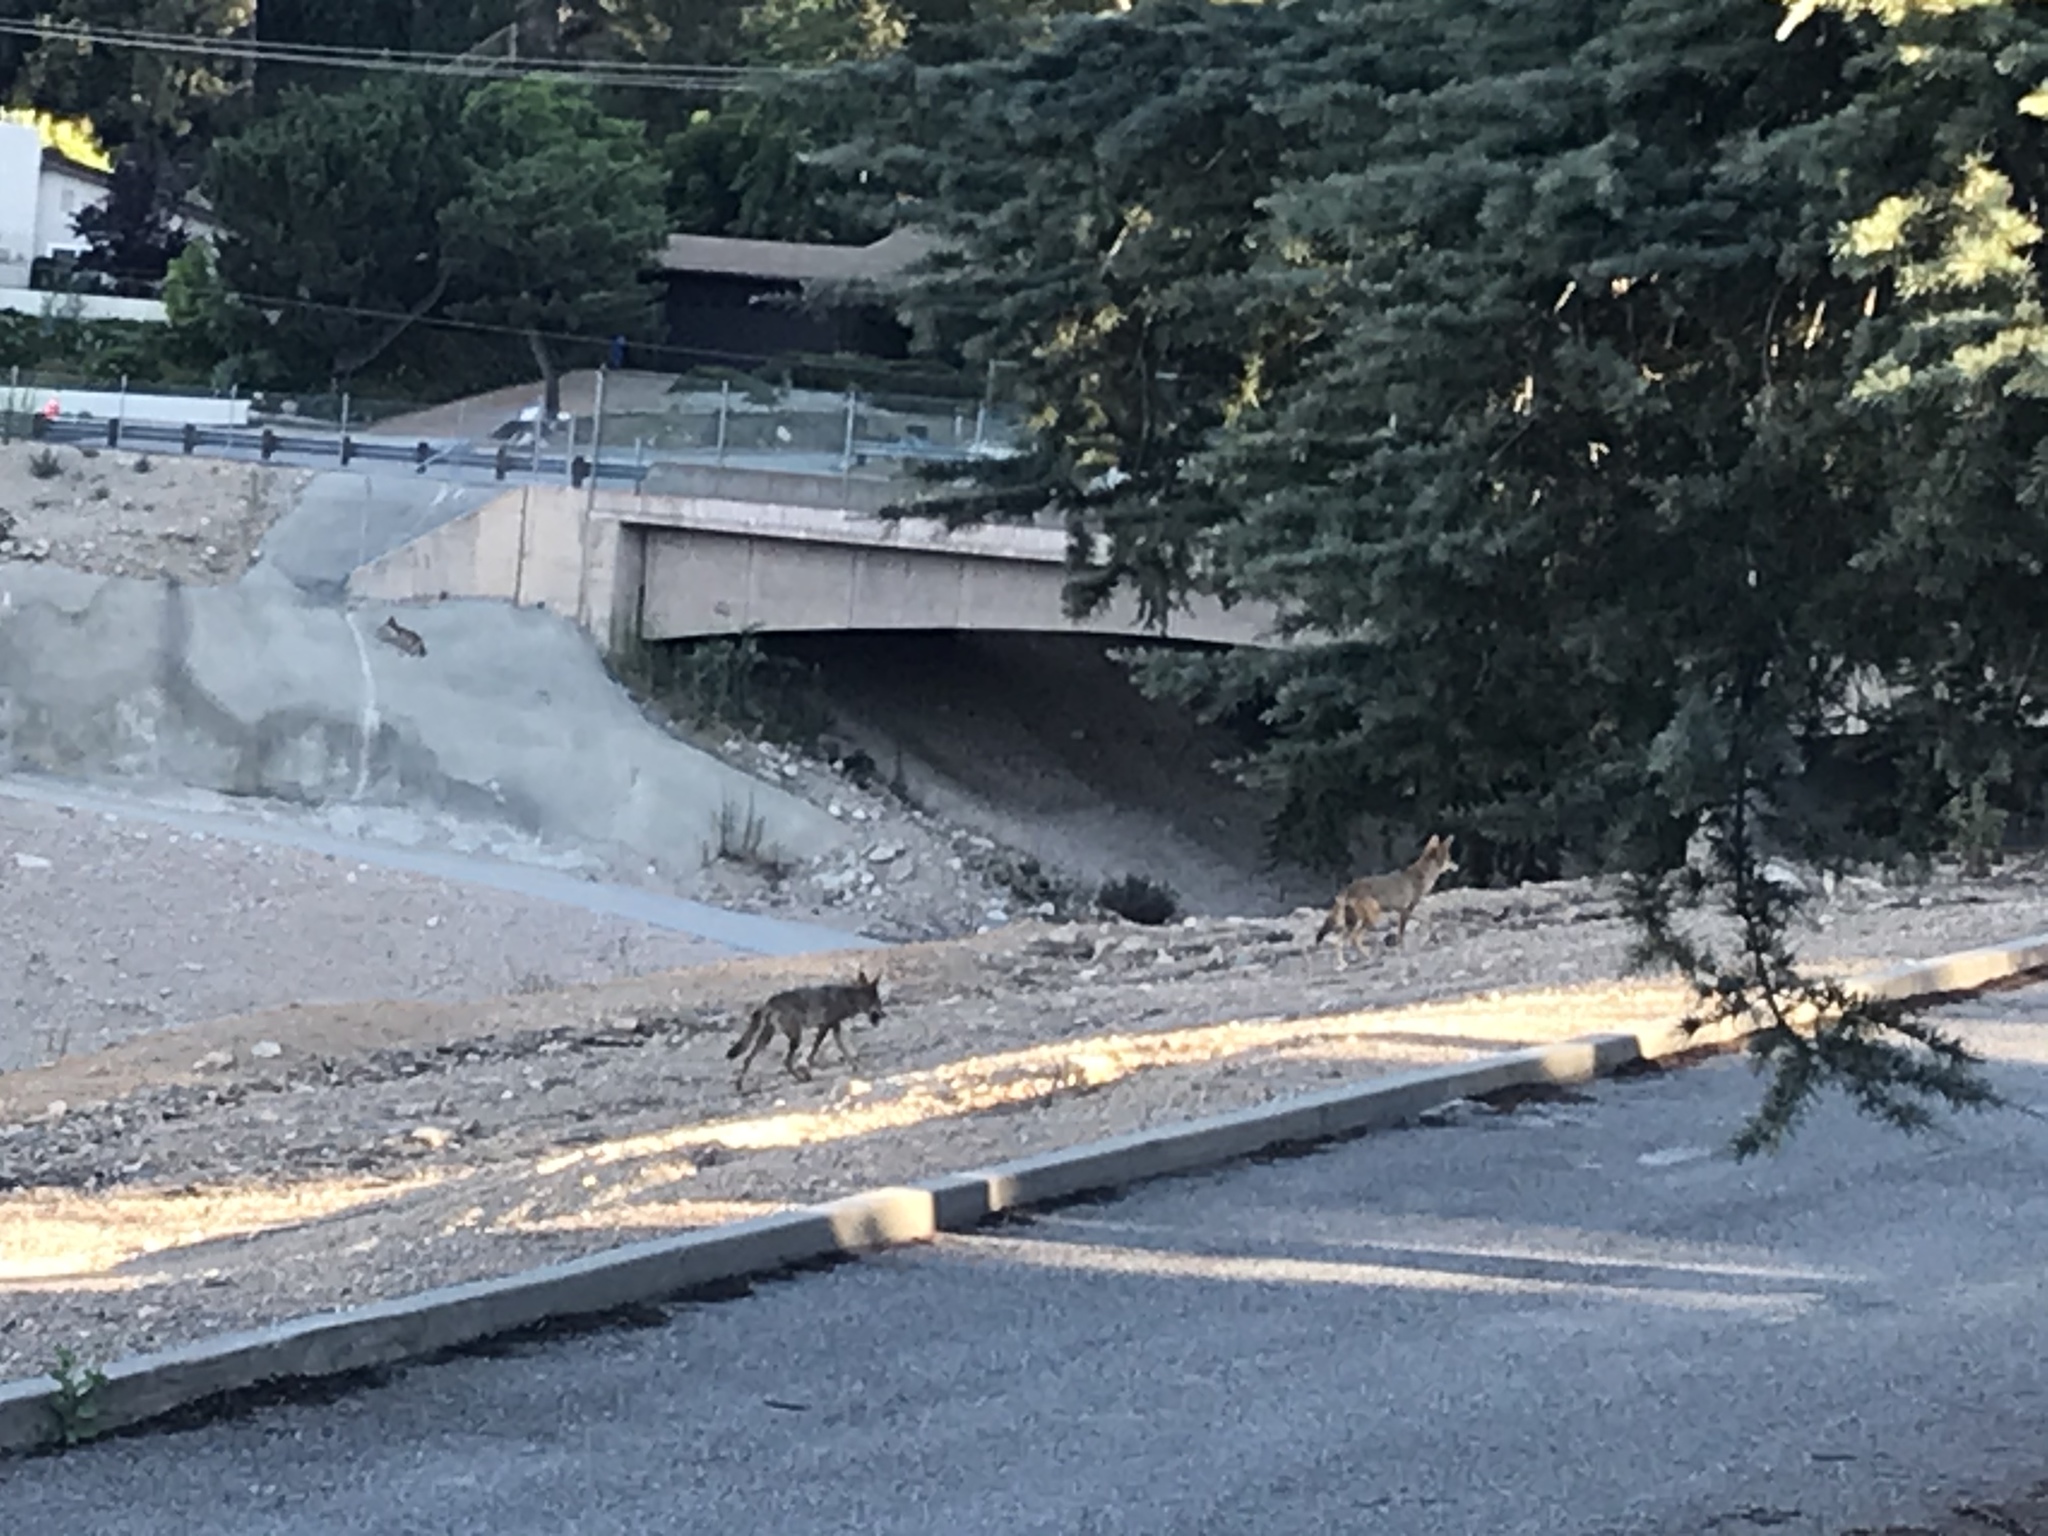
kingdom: Animalia
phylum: Chordata
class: Mammalia
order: Carnivora
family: Canidae
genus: Canis
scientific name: Canis latrans
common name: Coyote
